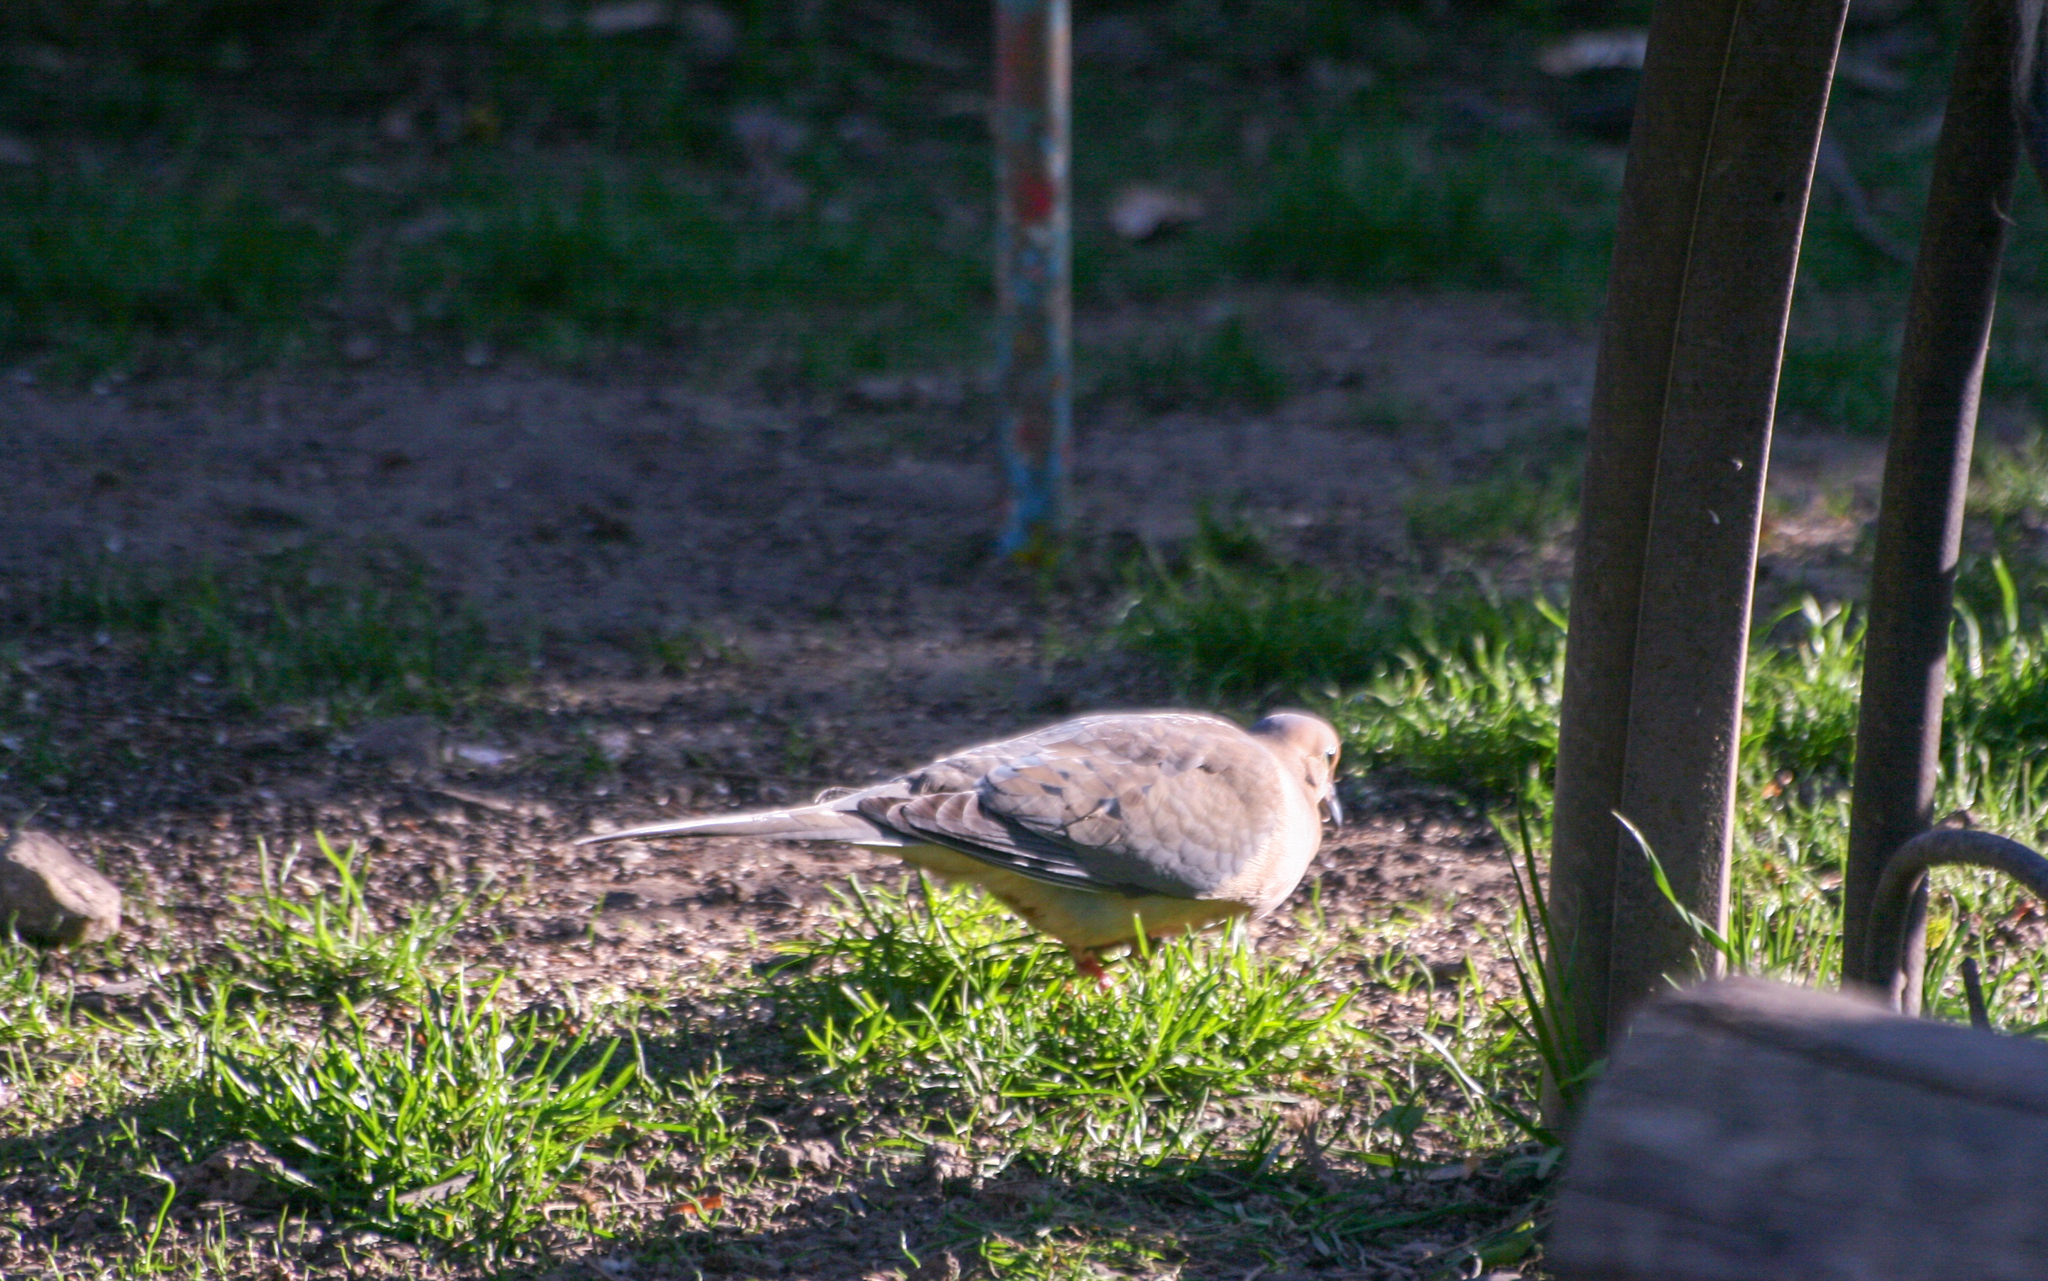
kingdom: Animalia
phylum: Chordata
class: Aves
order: Columbiformes
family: Columbidae
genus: Zenaida
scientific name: Zenaida macroura
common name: Mourning dove
